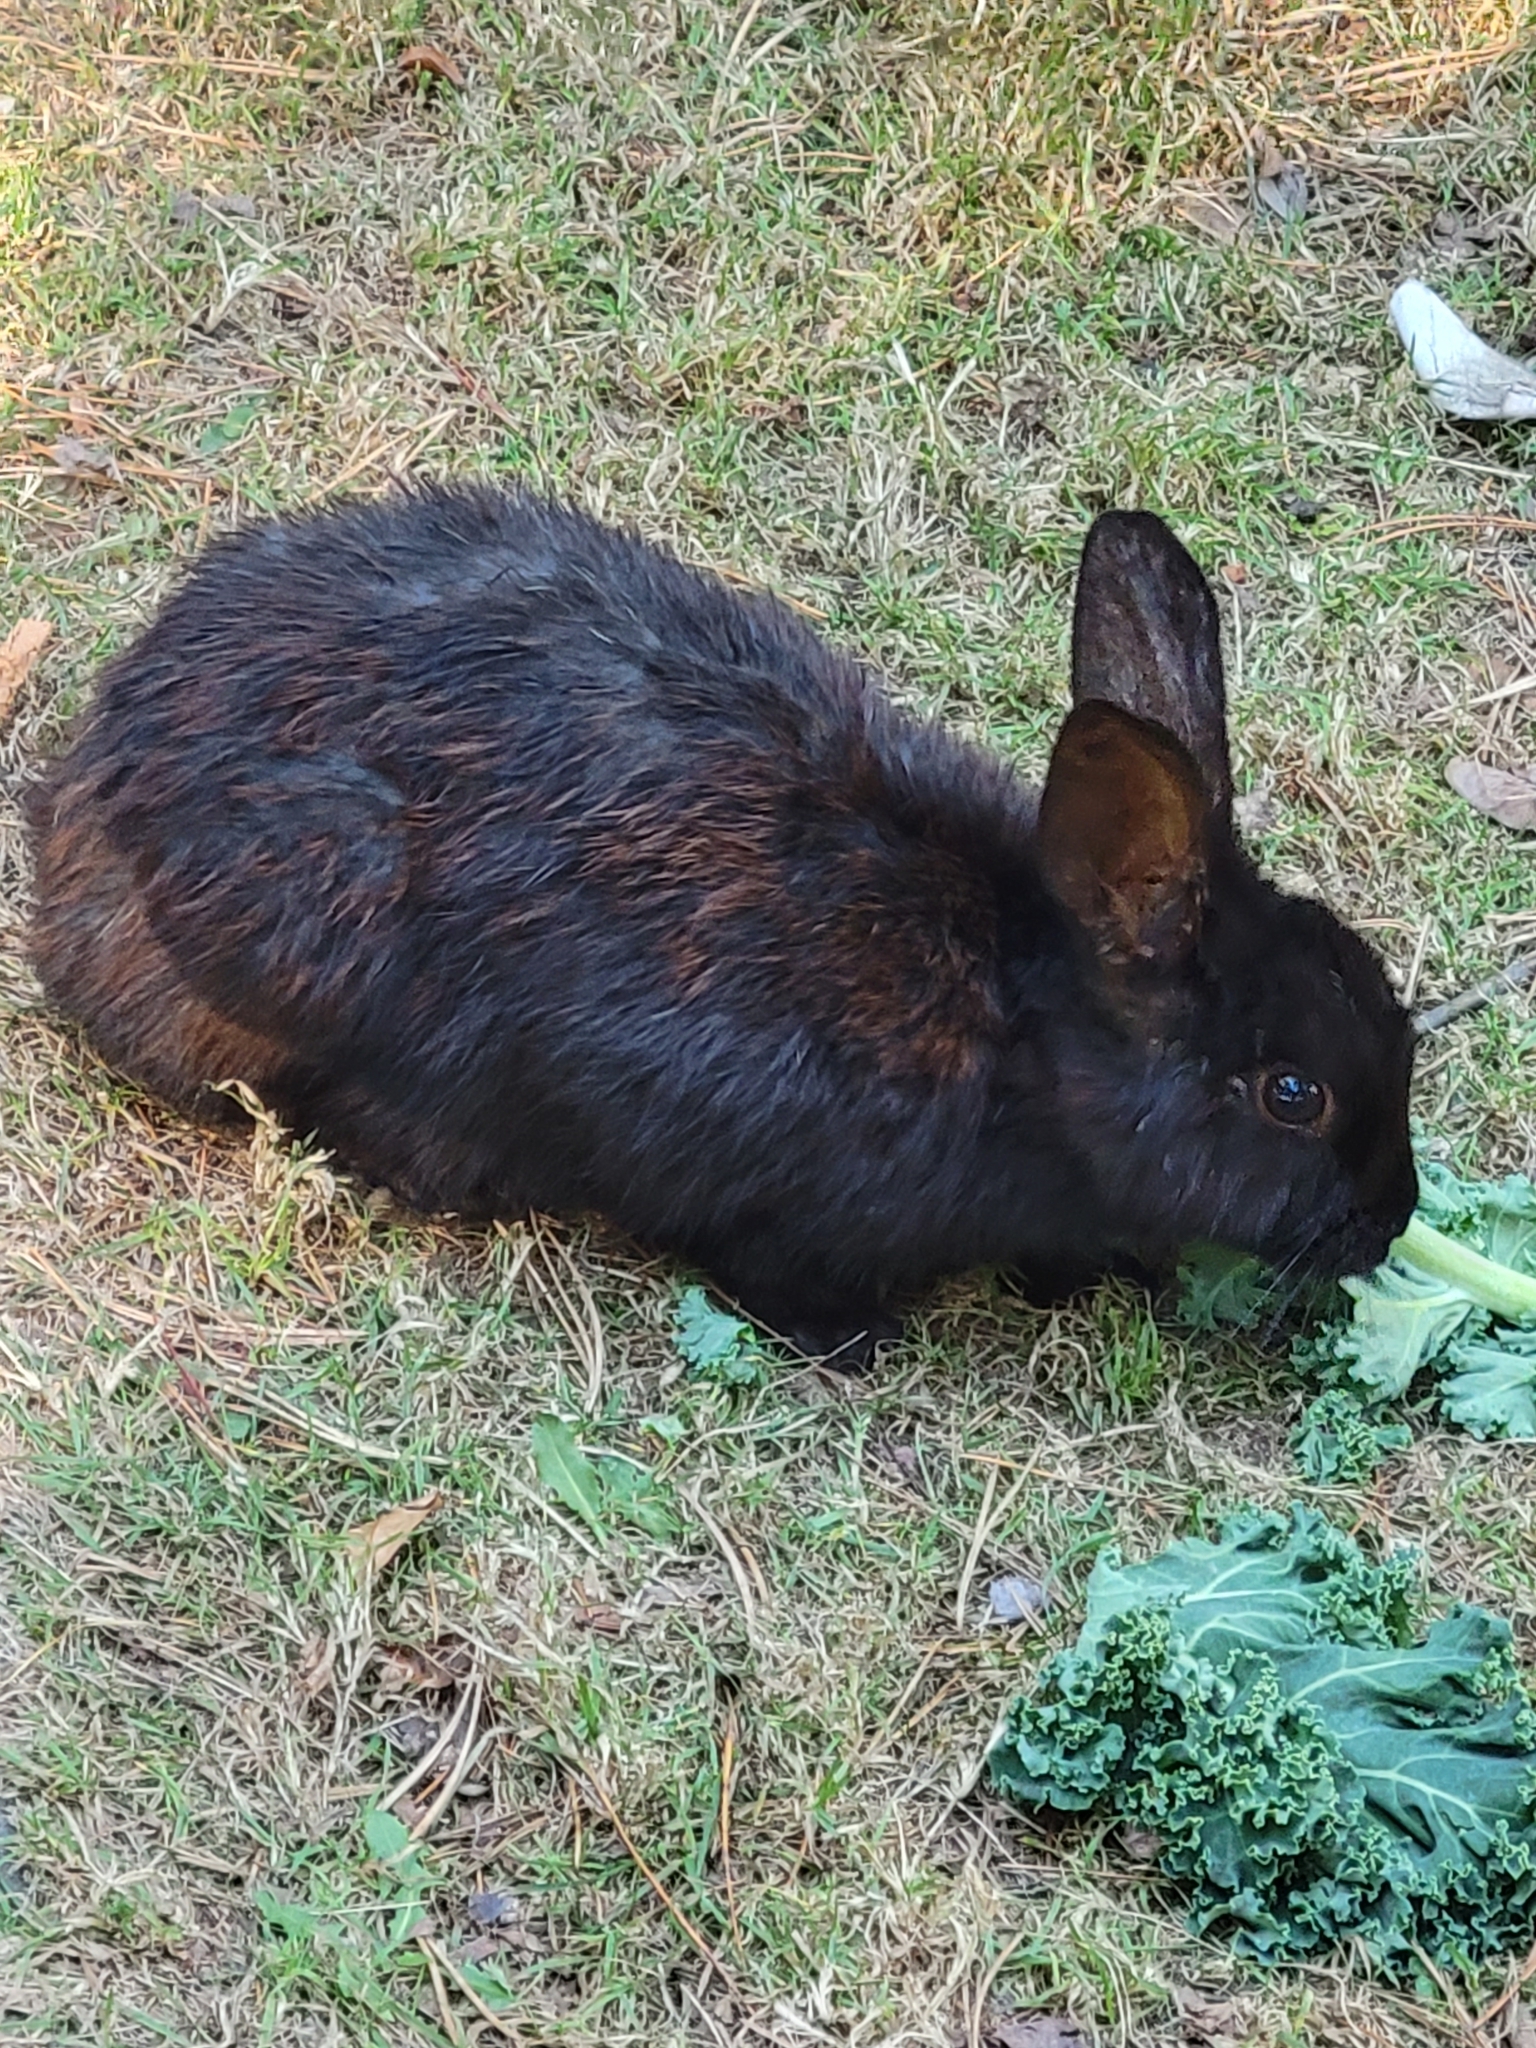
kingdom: Animalia
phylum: Chordata
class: Mammalia
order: Lagomorpha
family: Leporidae
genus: Oryctolagus
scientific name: Oryctolagus cuniculus
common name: European rabbit
